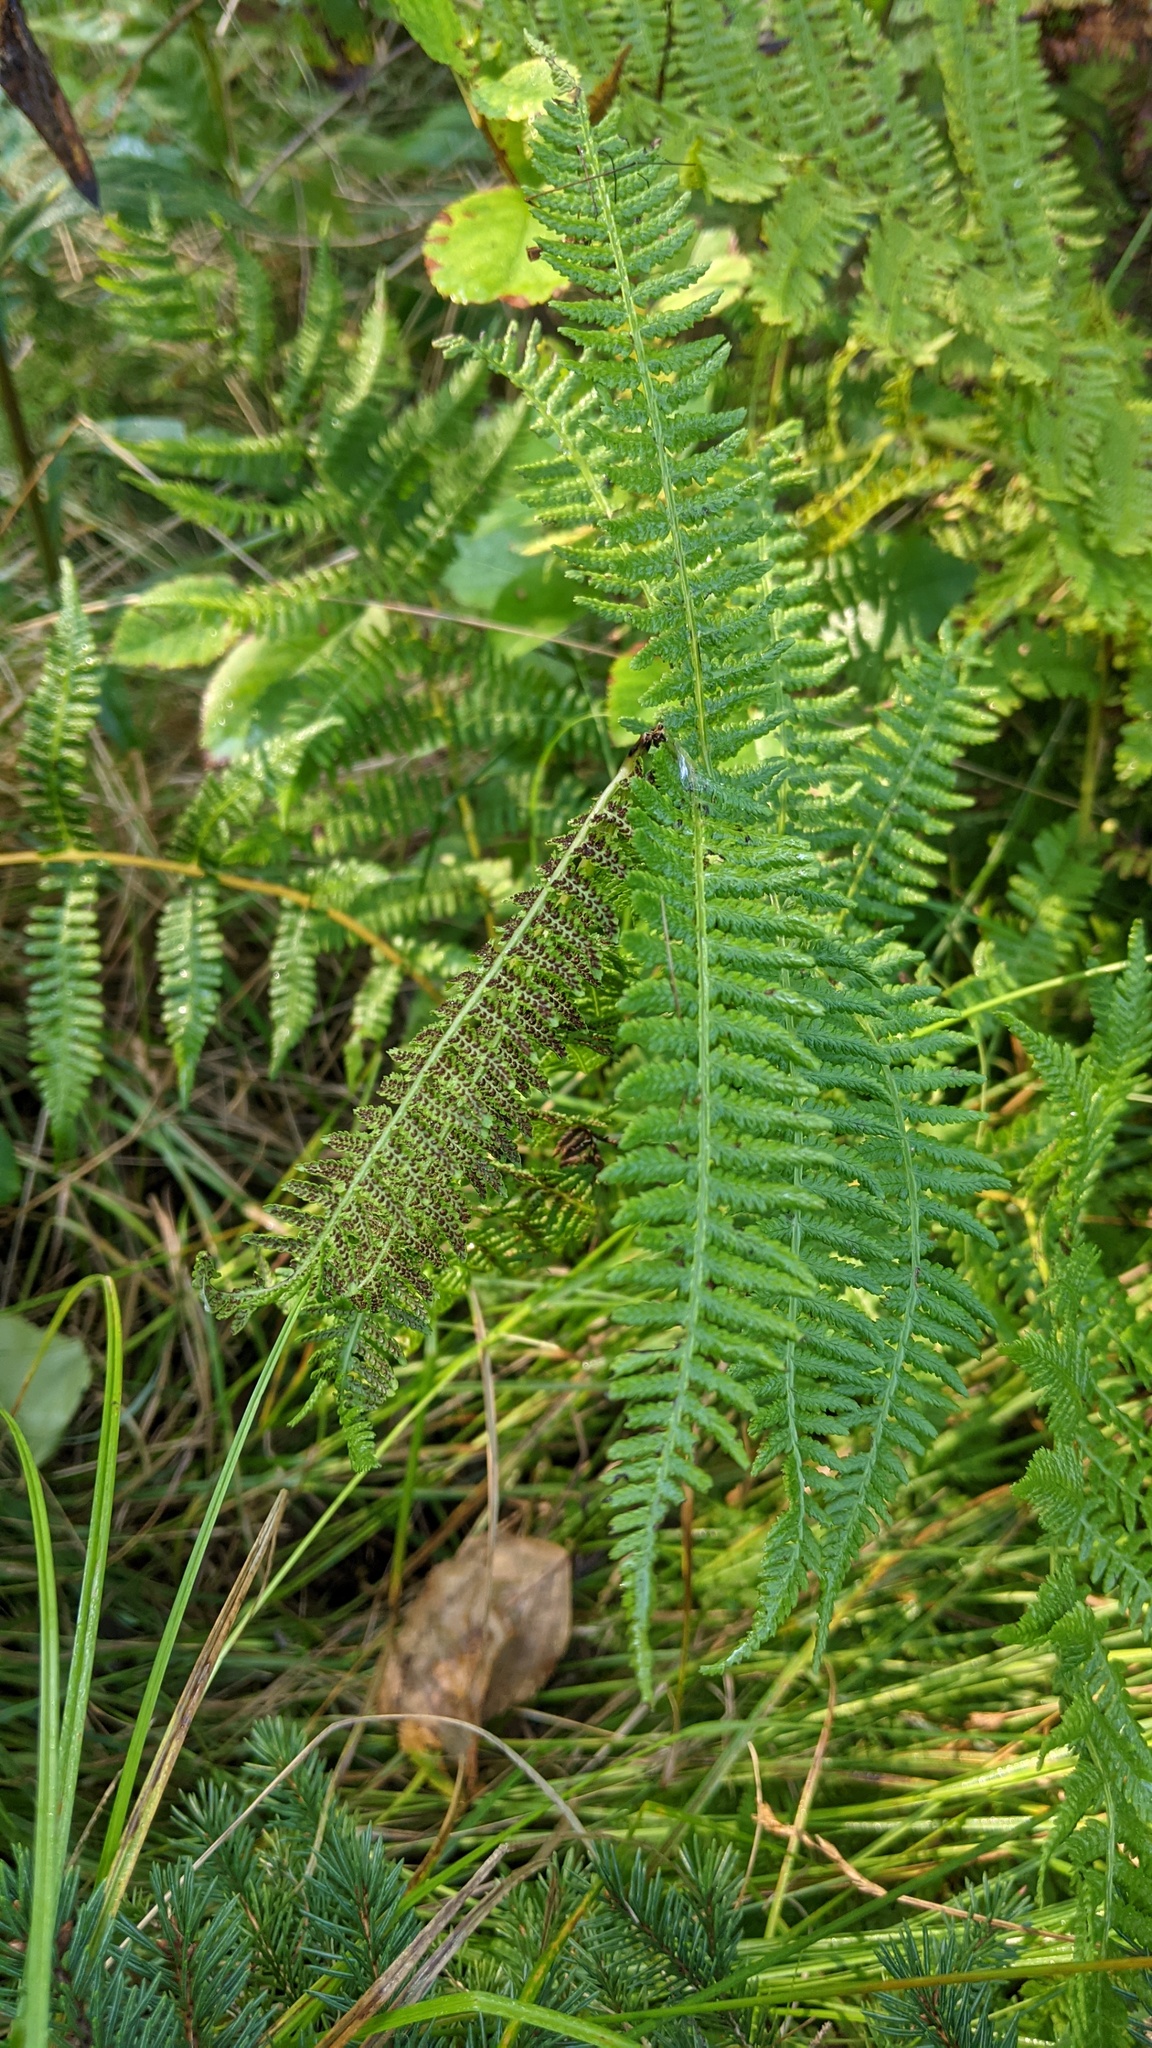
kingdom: Plantae
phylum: Tracheophyta
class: Polypodiopsida
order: Polypodiales
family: Athyriaceae
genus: Athyrium
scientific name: Athyrium angustum
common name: Northern lady fern
